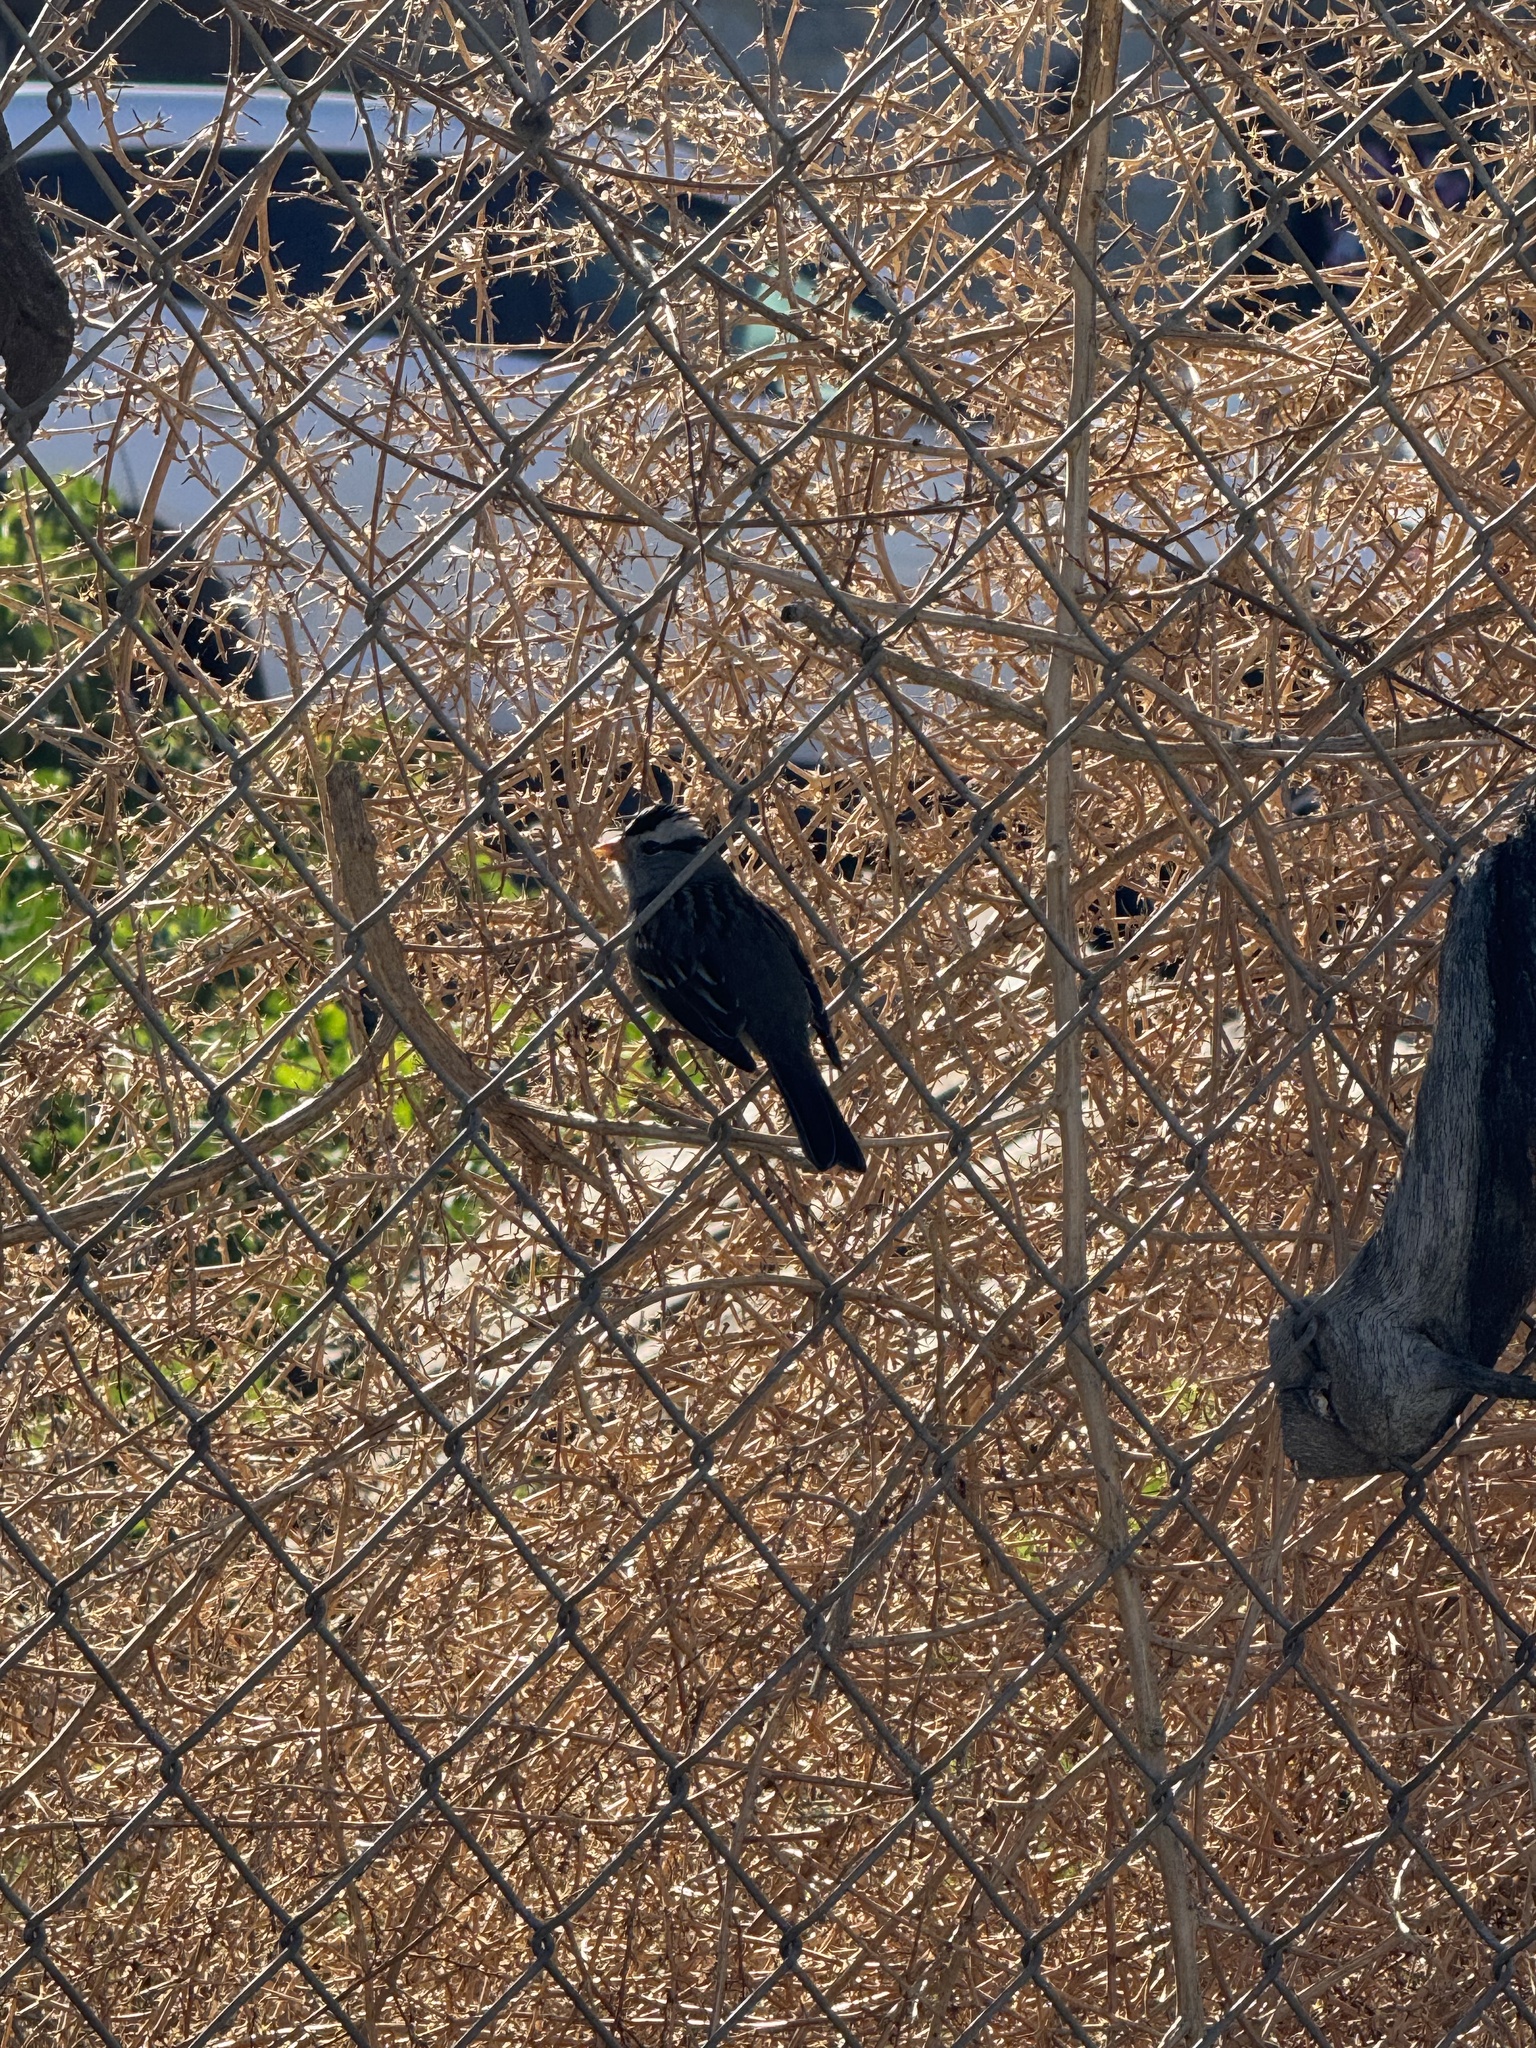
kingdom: Animalia
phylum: Chordata
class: Aves
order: Passeriformes
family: Passerellidae
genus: Zonotrichia
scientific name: Zonotrichia leucophrys
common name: White-crowned sparrow
